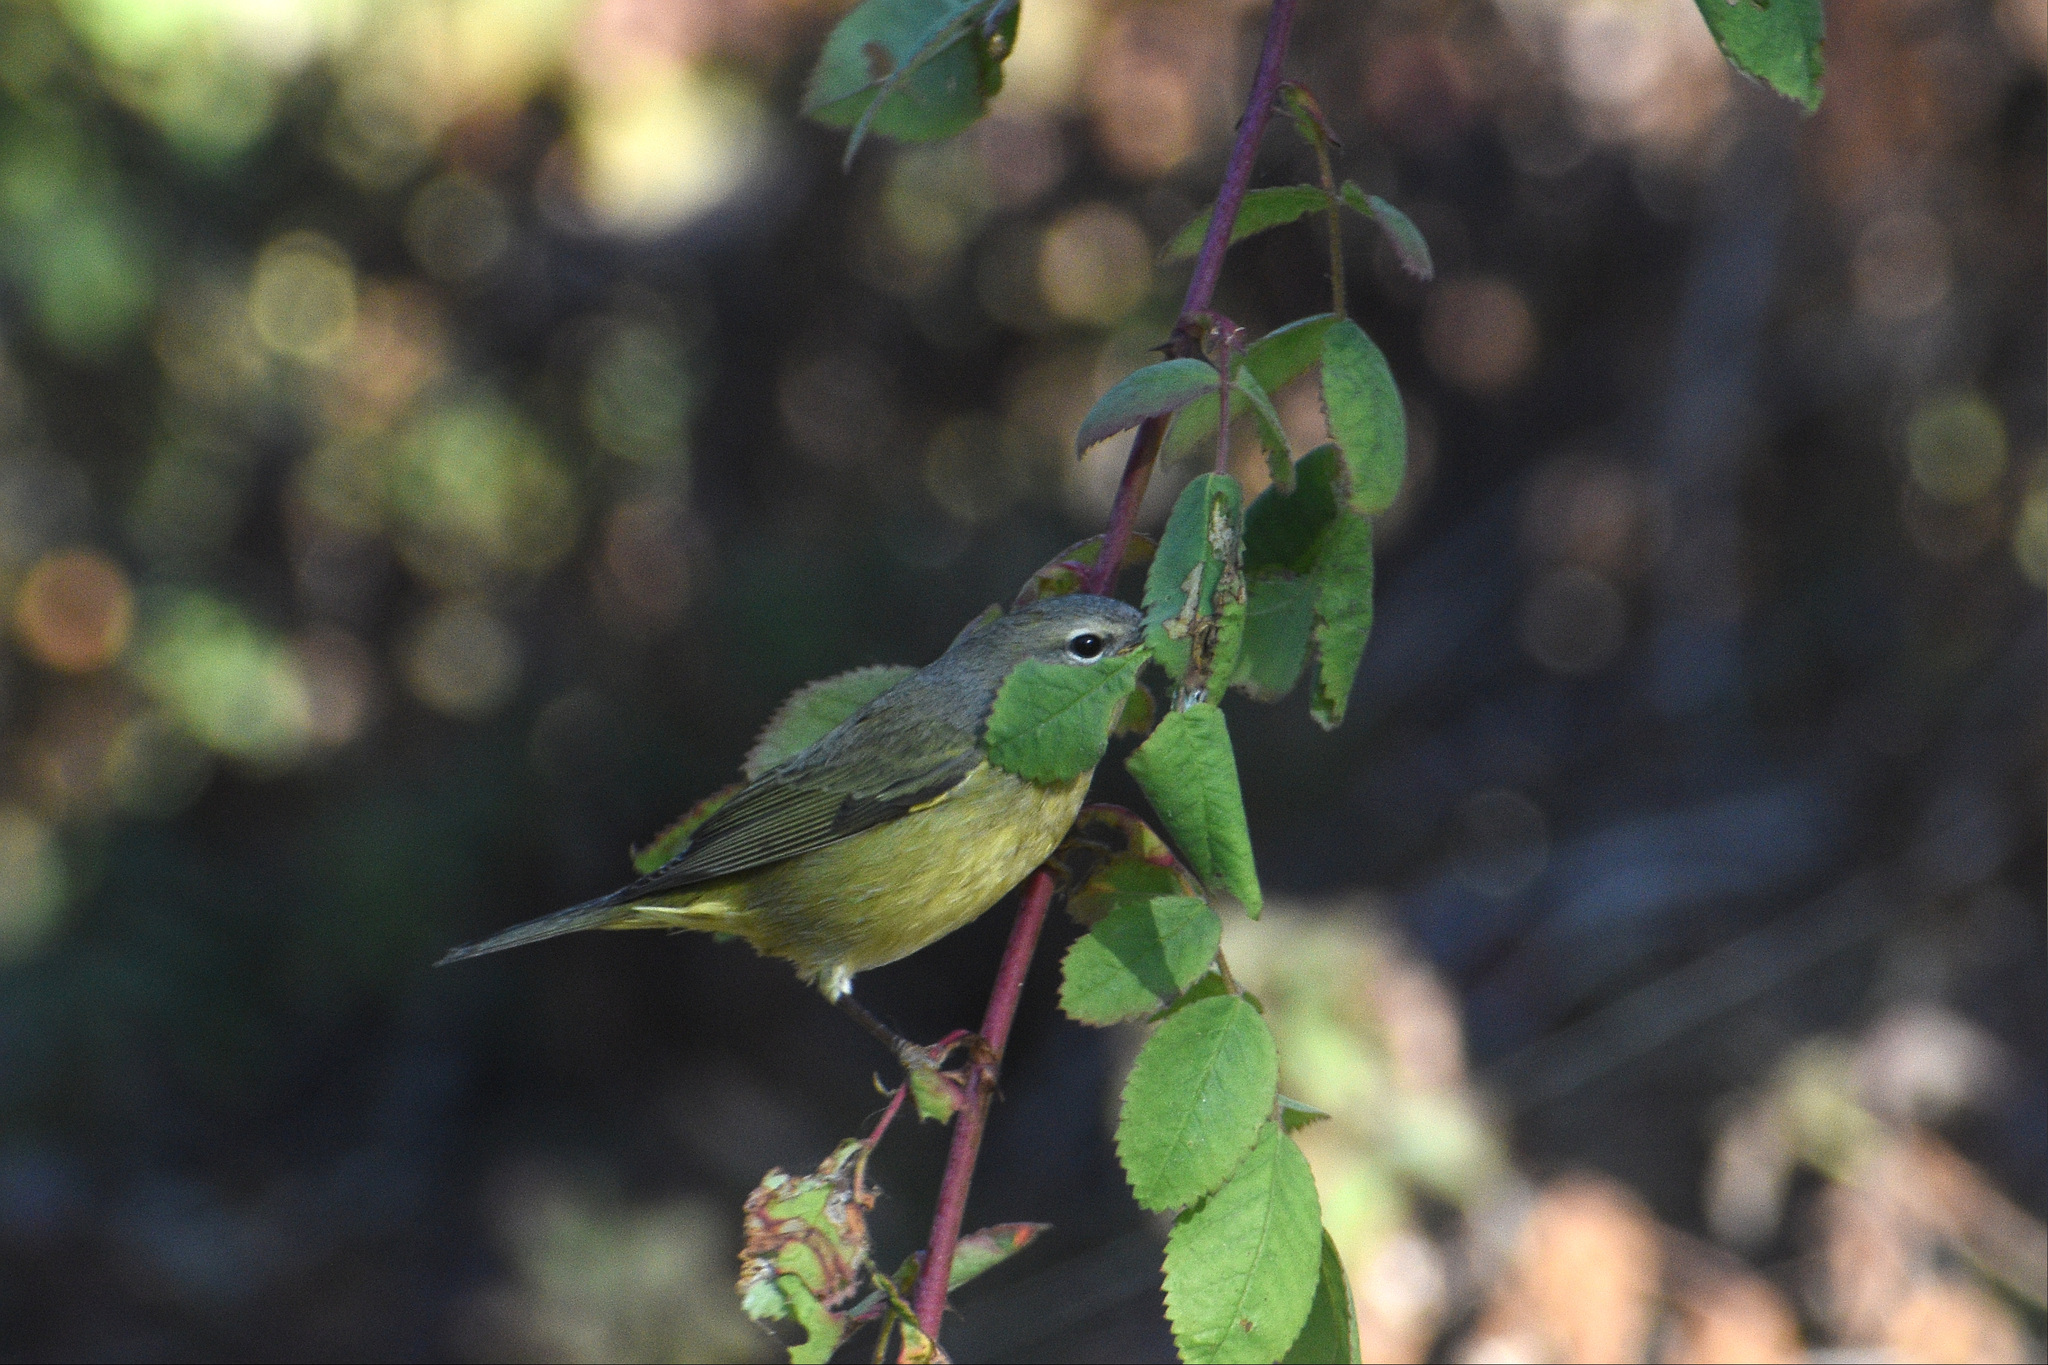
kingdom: Animalia
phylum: Chordata
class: Aves
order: Passeriformes
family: Parulidae
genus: Leiothlypis
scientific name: Leiothlypis celata
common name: Orange-crowned warbler
